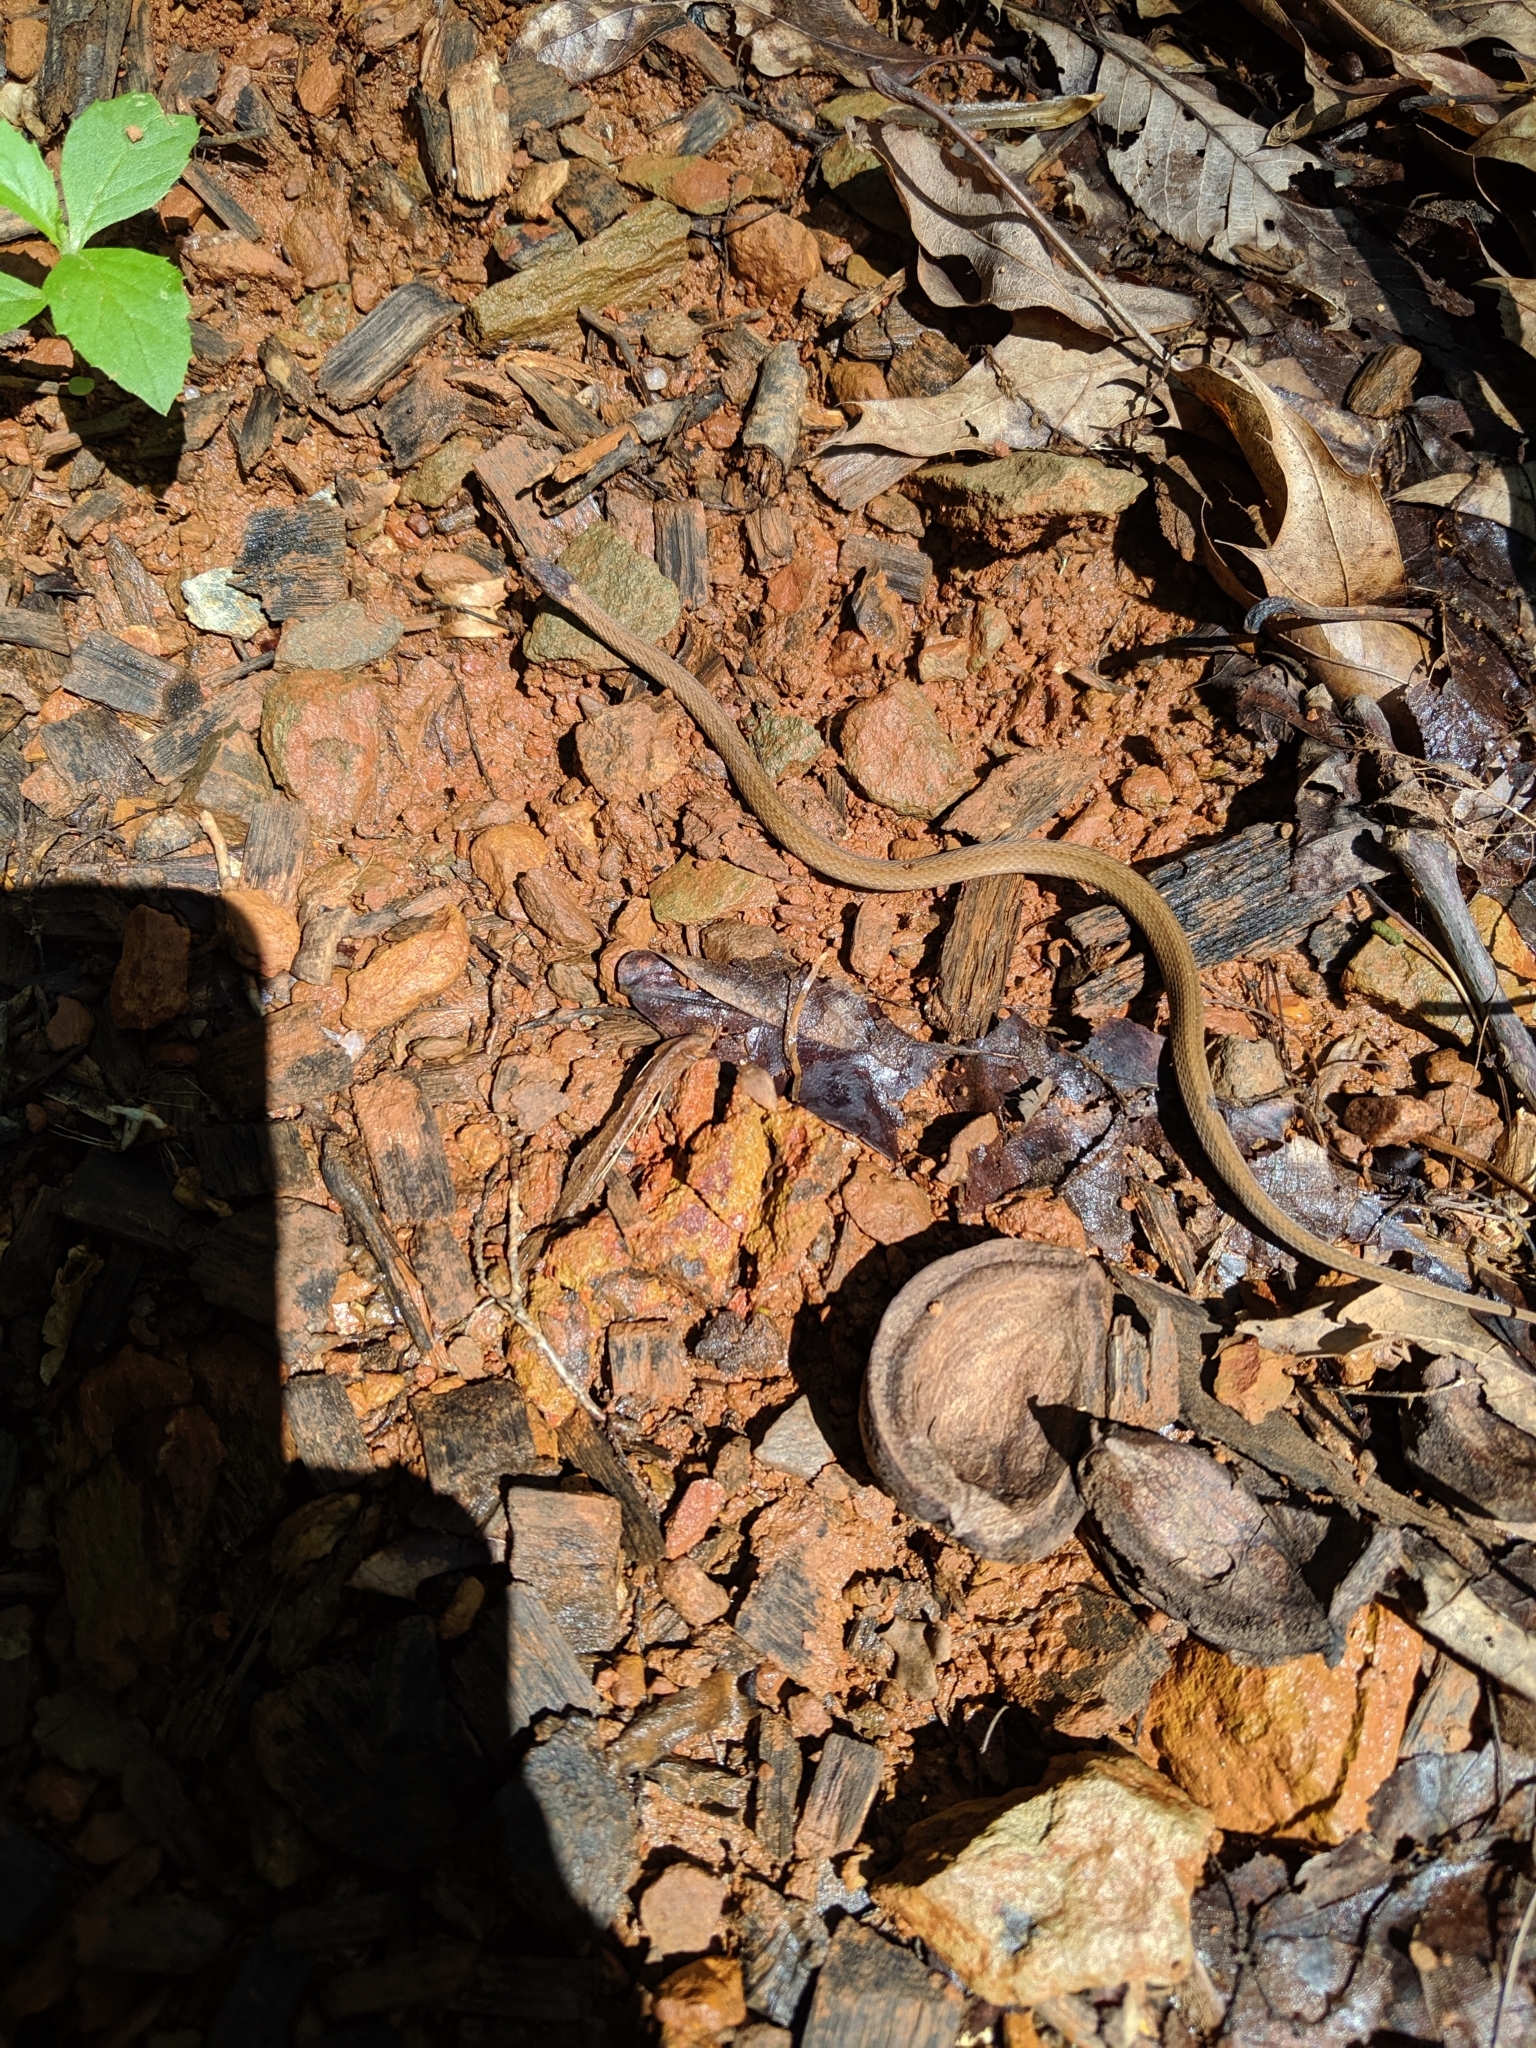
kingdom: Animalia
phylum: Chordata
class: Squamata
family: Colubridae
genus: Storeria
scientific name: Storeria occipitomaculata
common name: Redbelly snake
